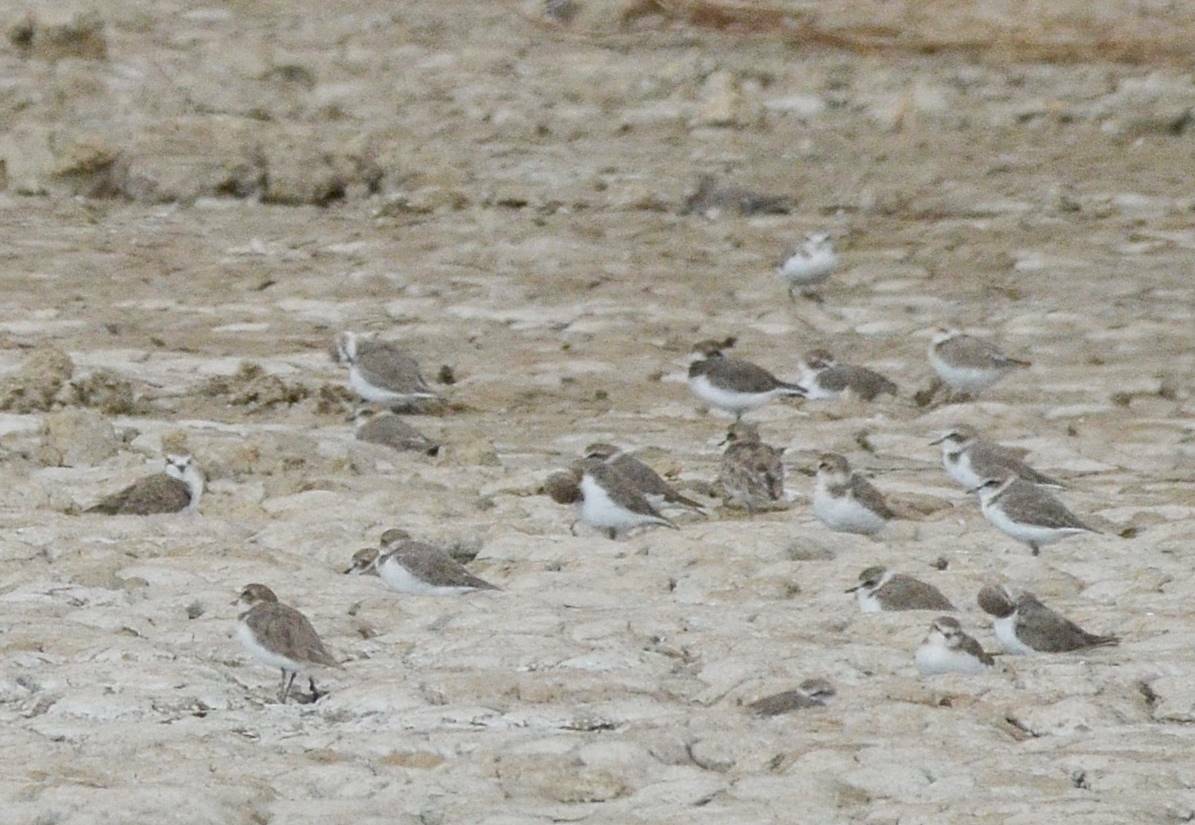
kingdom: Animalia
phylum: Chordata
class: Aves
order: Charadriiformes
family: Charadriidae
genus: Charadrius
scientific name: Charadrius alexandrinus
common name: Kentish plover
